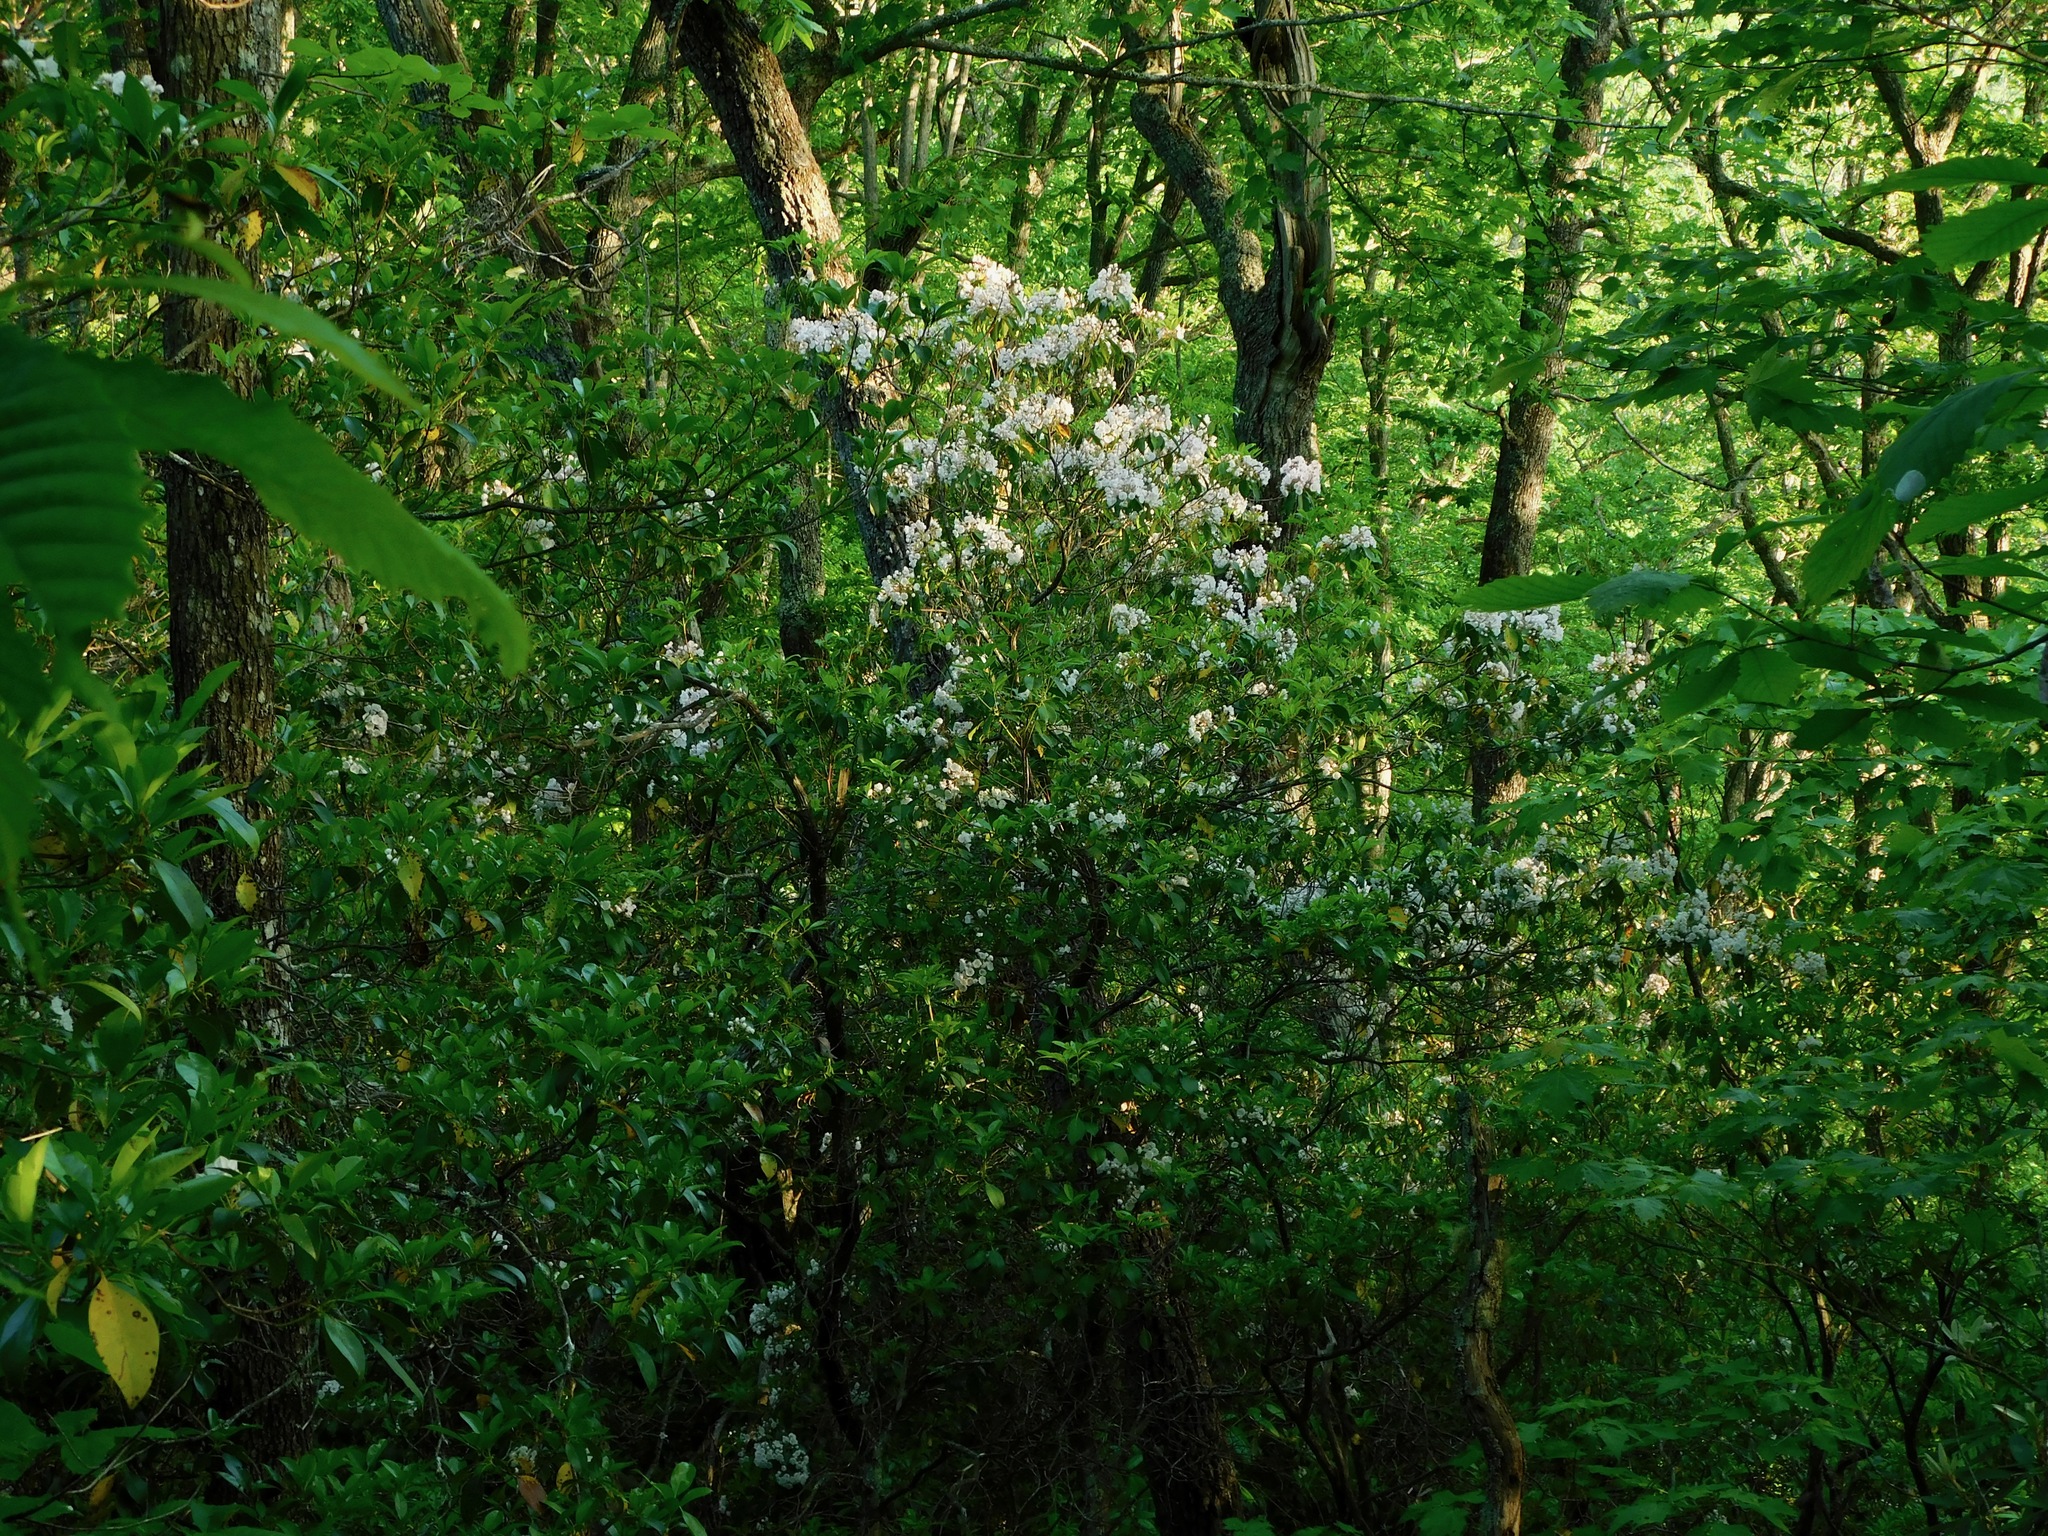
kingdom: Plantae
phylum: Tracheophyta
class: Magnoliopsida
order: Ericales
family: Ericaceae
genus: Kalmia
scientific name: Kalmia latifolia
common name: Mountain-laurel
